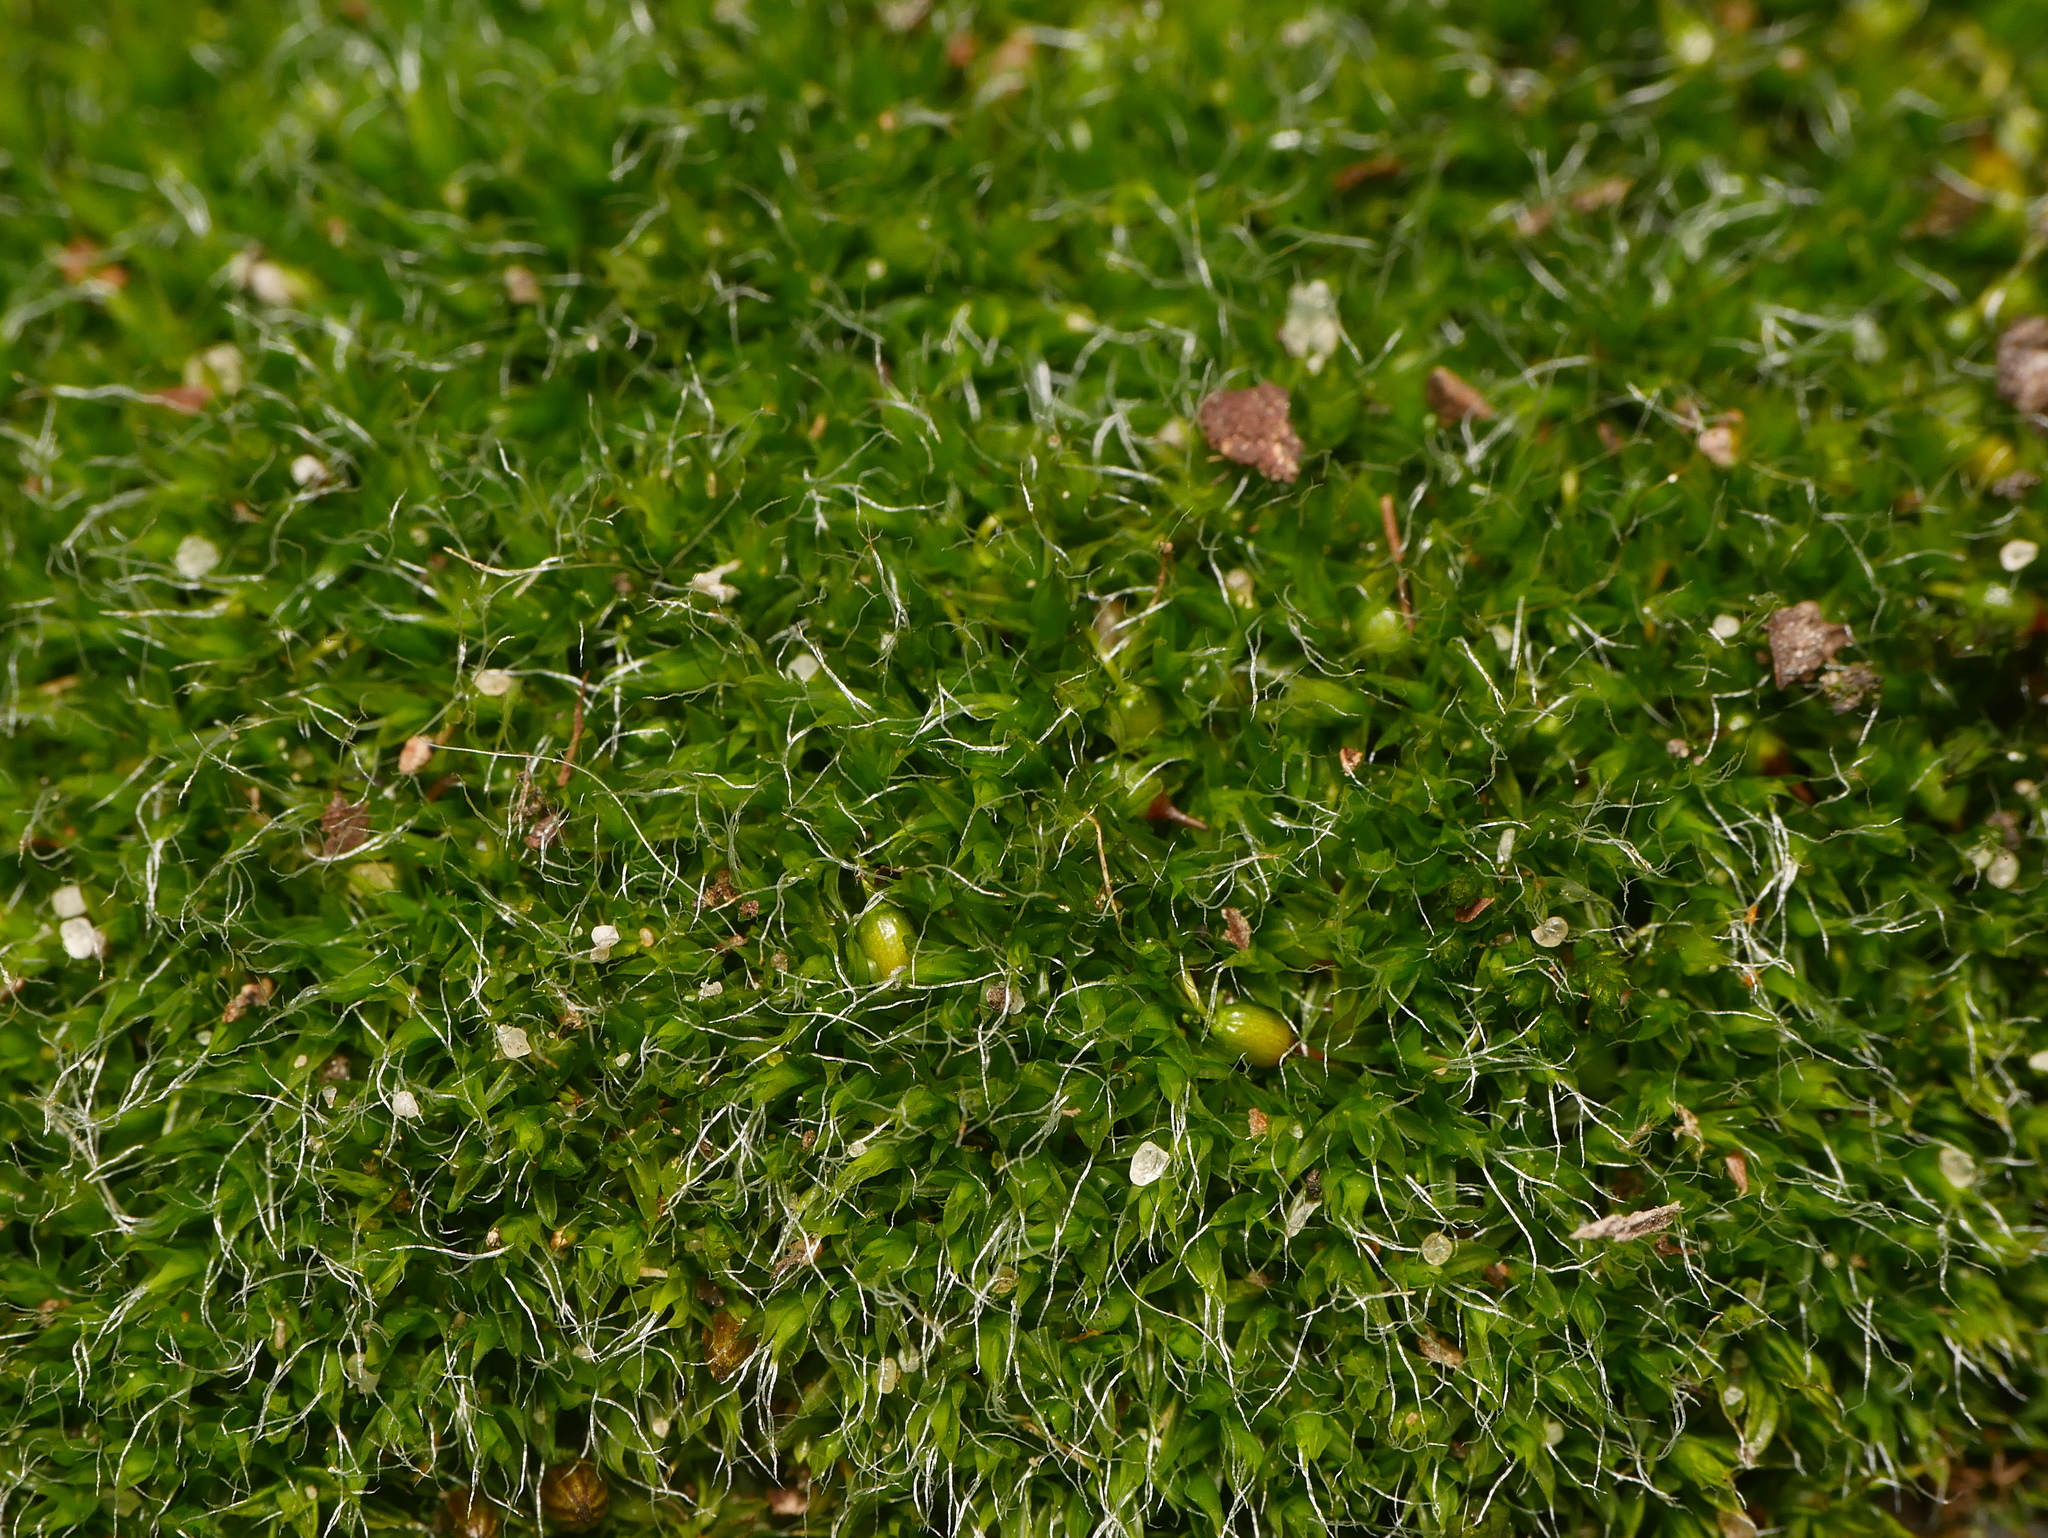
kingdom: Plantae
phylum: Bryophyta
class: Bryopsida
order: Grimmiales
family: Grimmiaceae
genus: Grimmia
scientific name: Grimmia pulvinata
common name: Grey-cushioned grimmia
